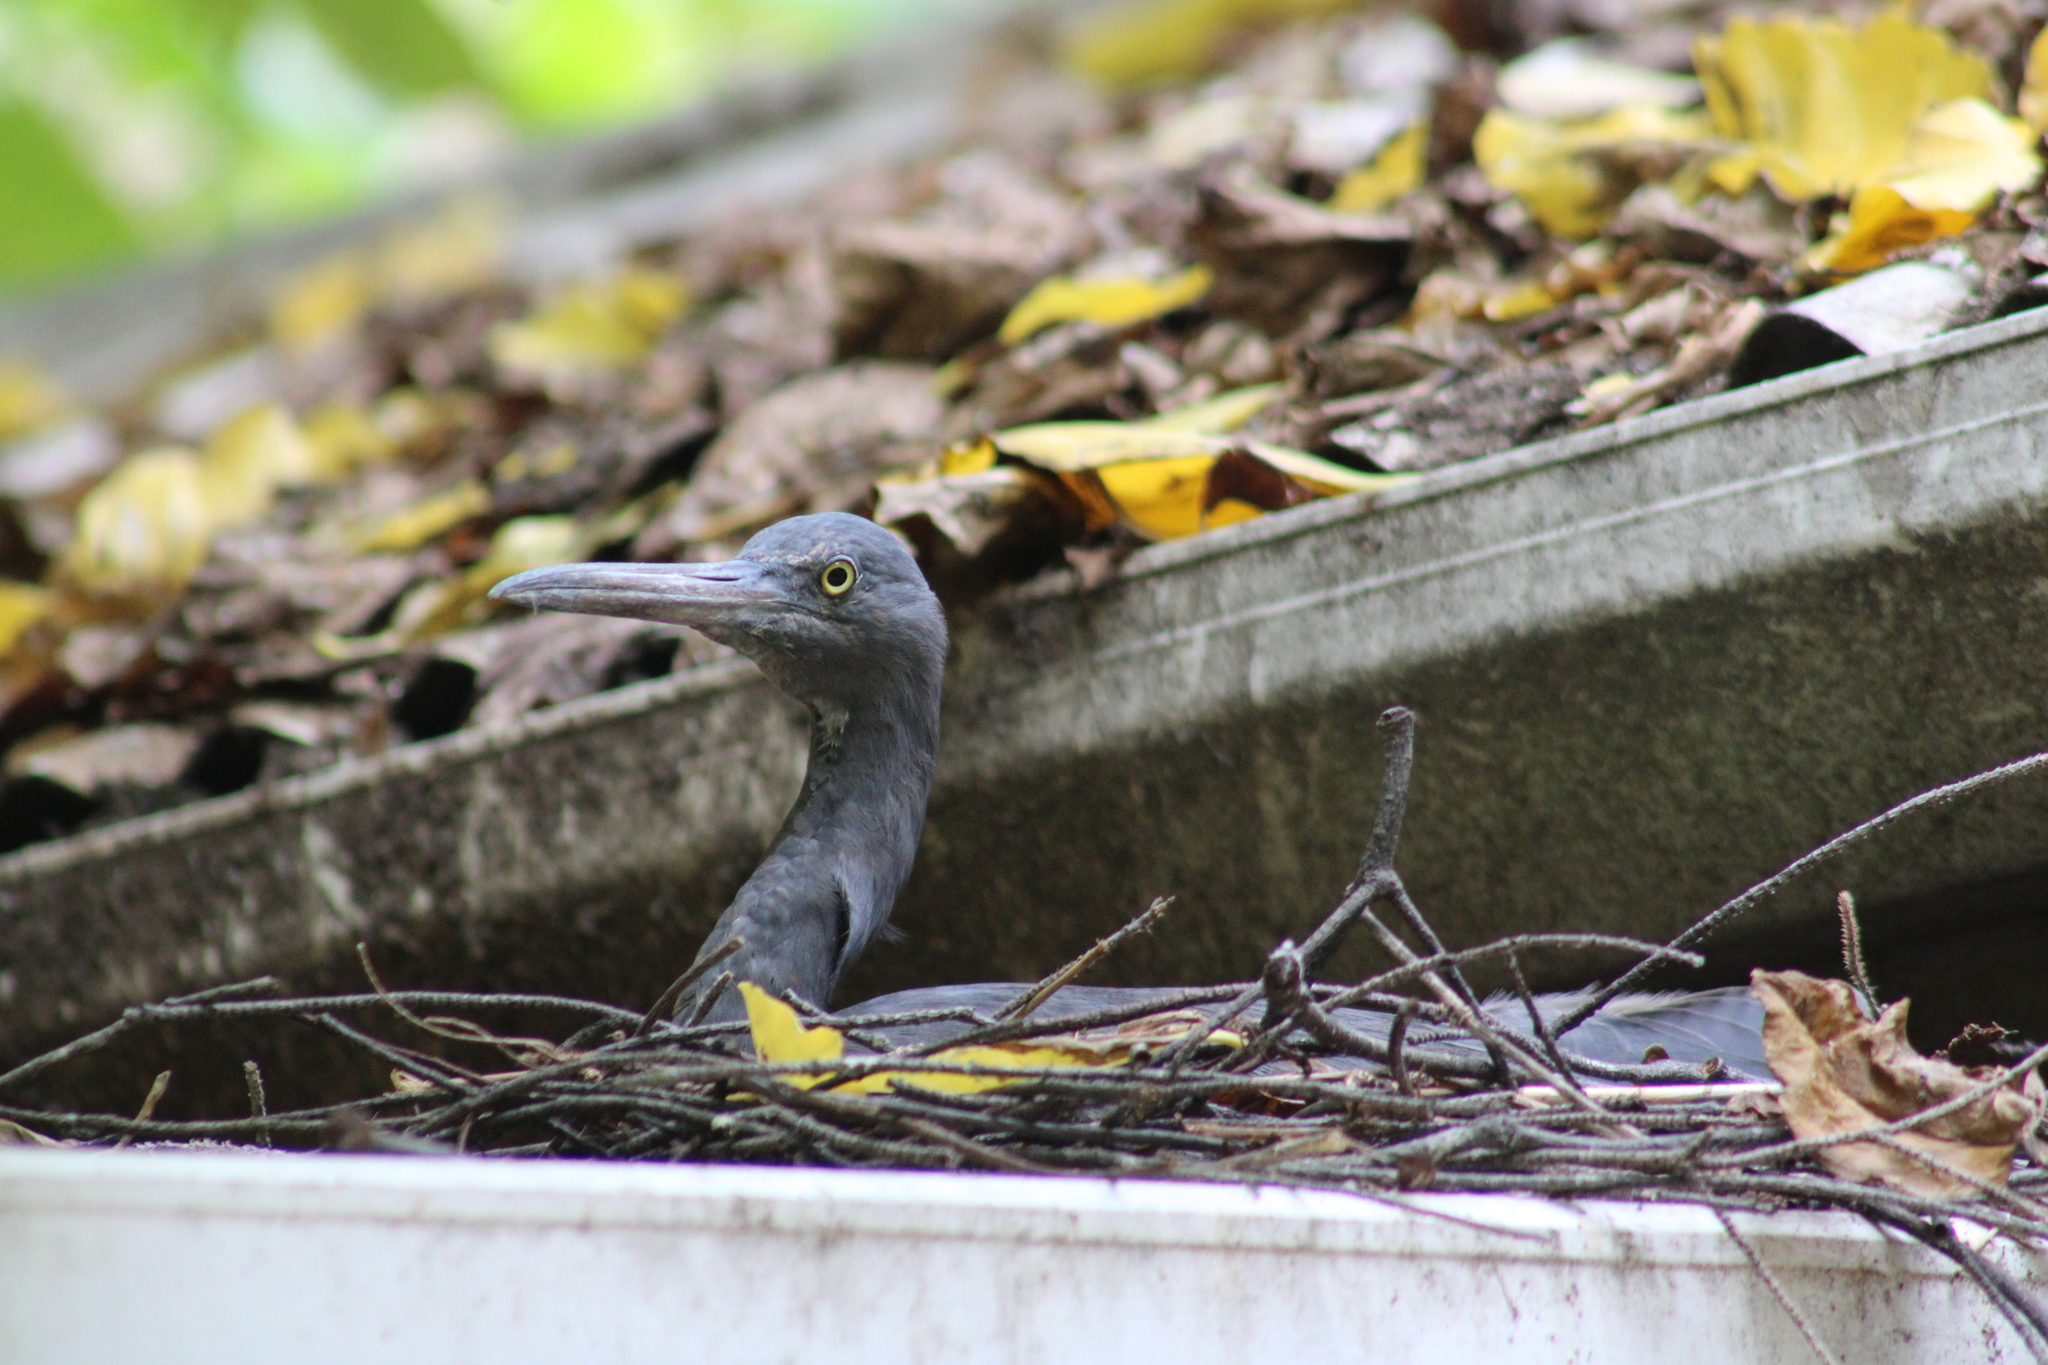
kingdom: Animalia
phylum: Chordata
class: Aves
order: Pelecaniformes
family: Ardeidae
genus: Egretta
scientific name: Egretta sacra
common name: Pacific reef heron
